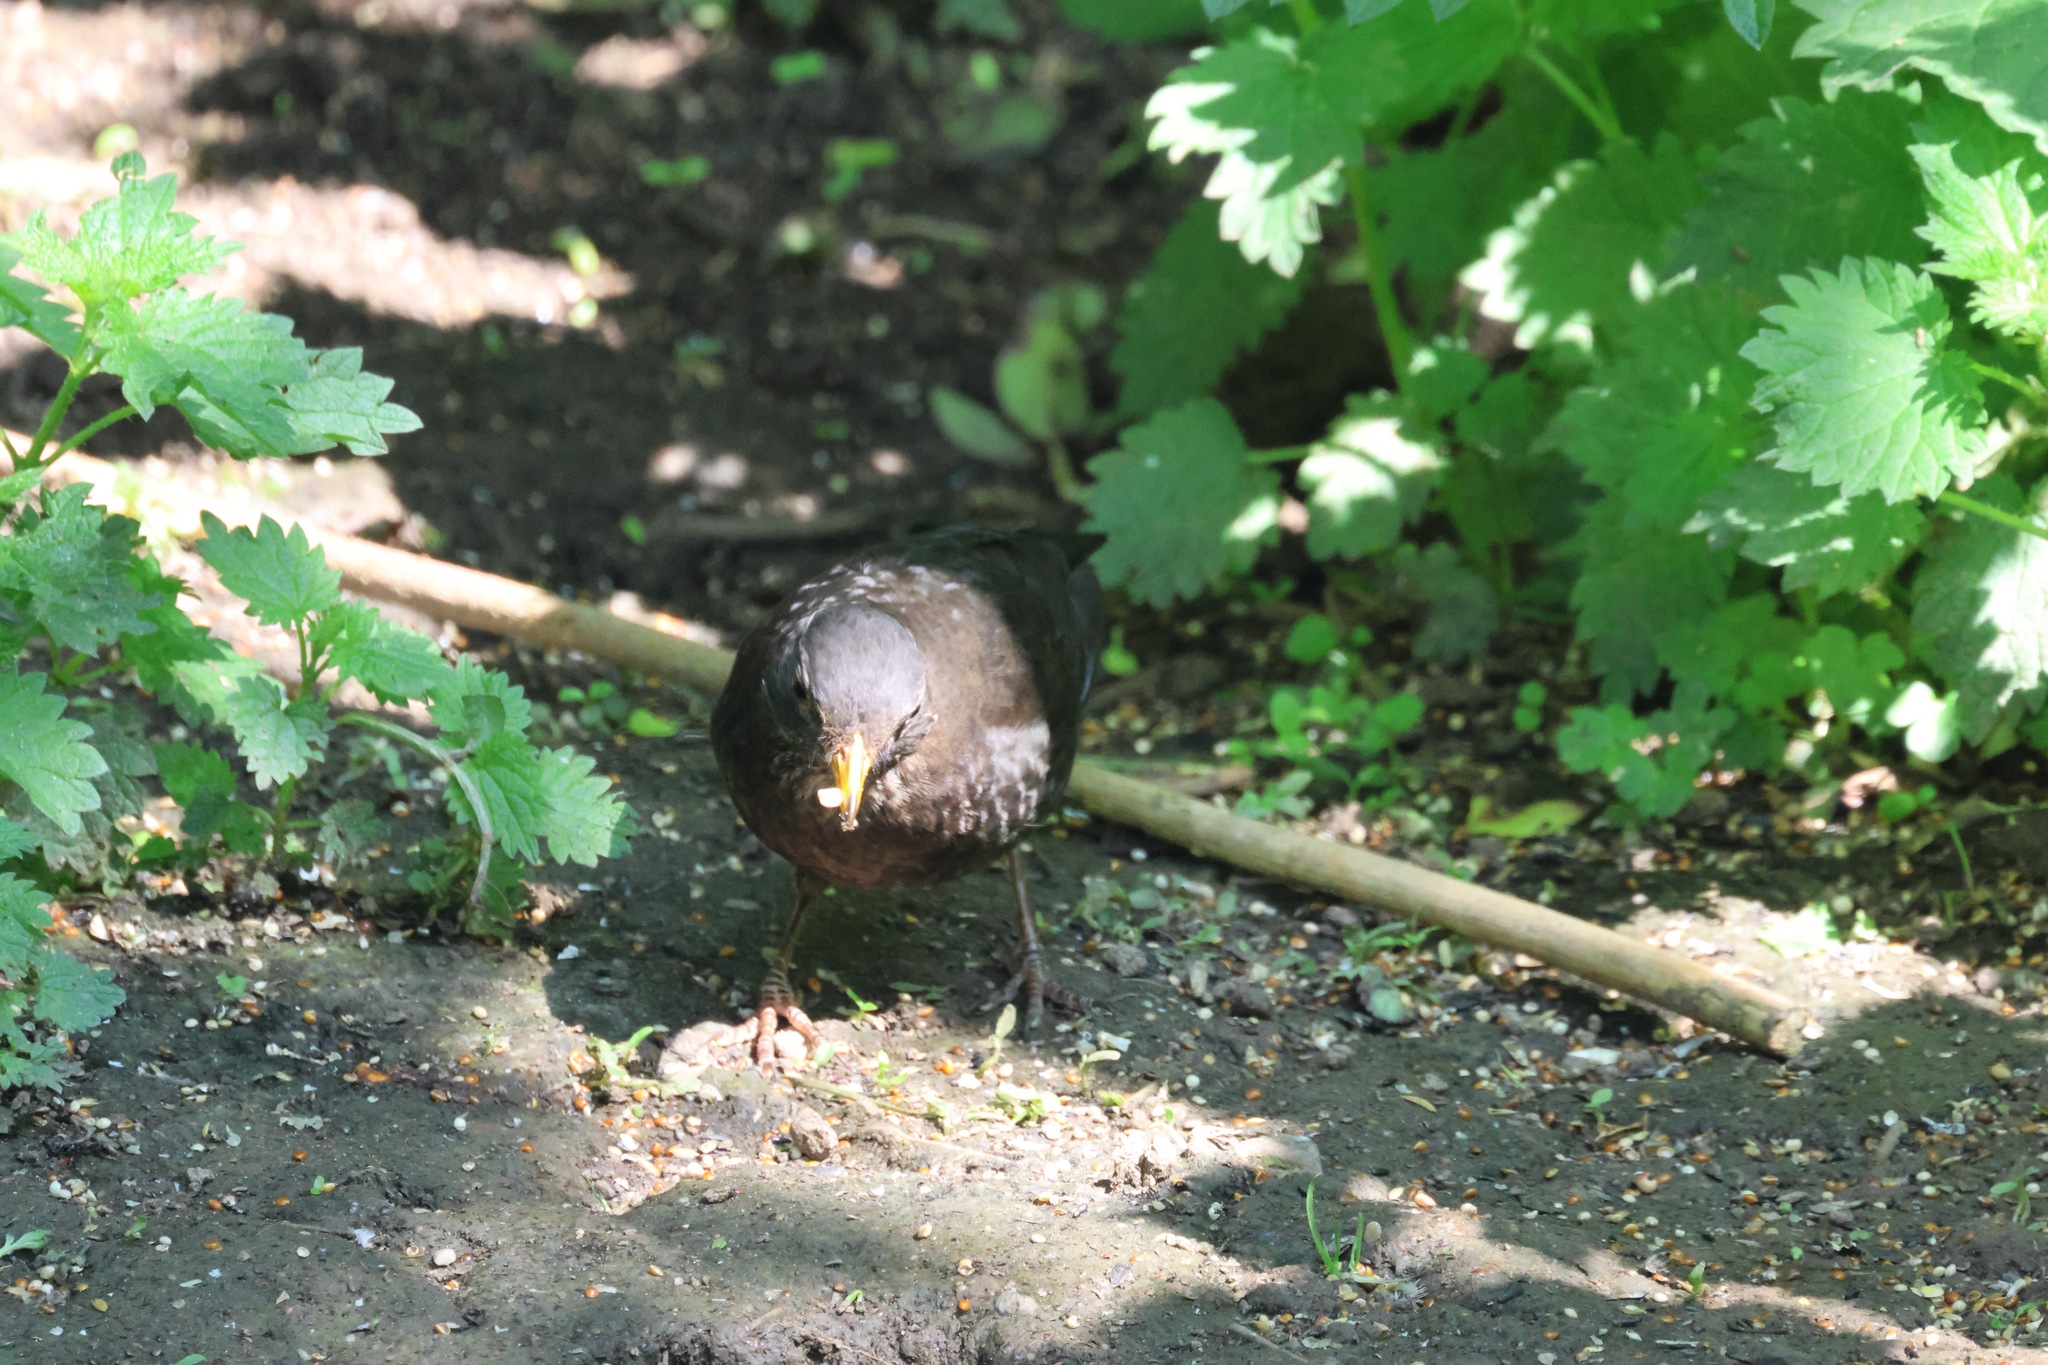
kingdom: Animalia
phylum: Chordata
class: Aves
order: Passeriformes
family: Turdidae
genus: Turdus
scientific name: Turdus merula
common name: Common blackbird
